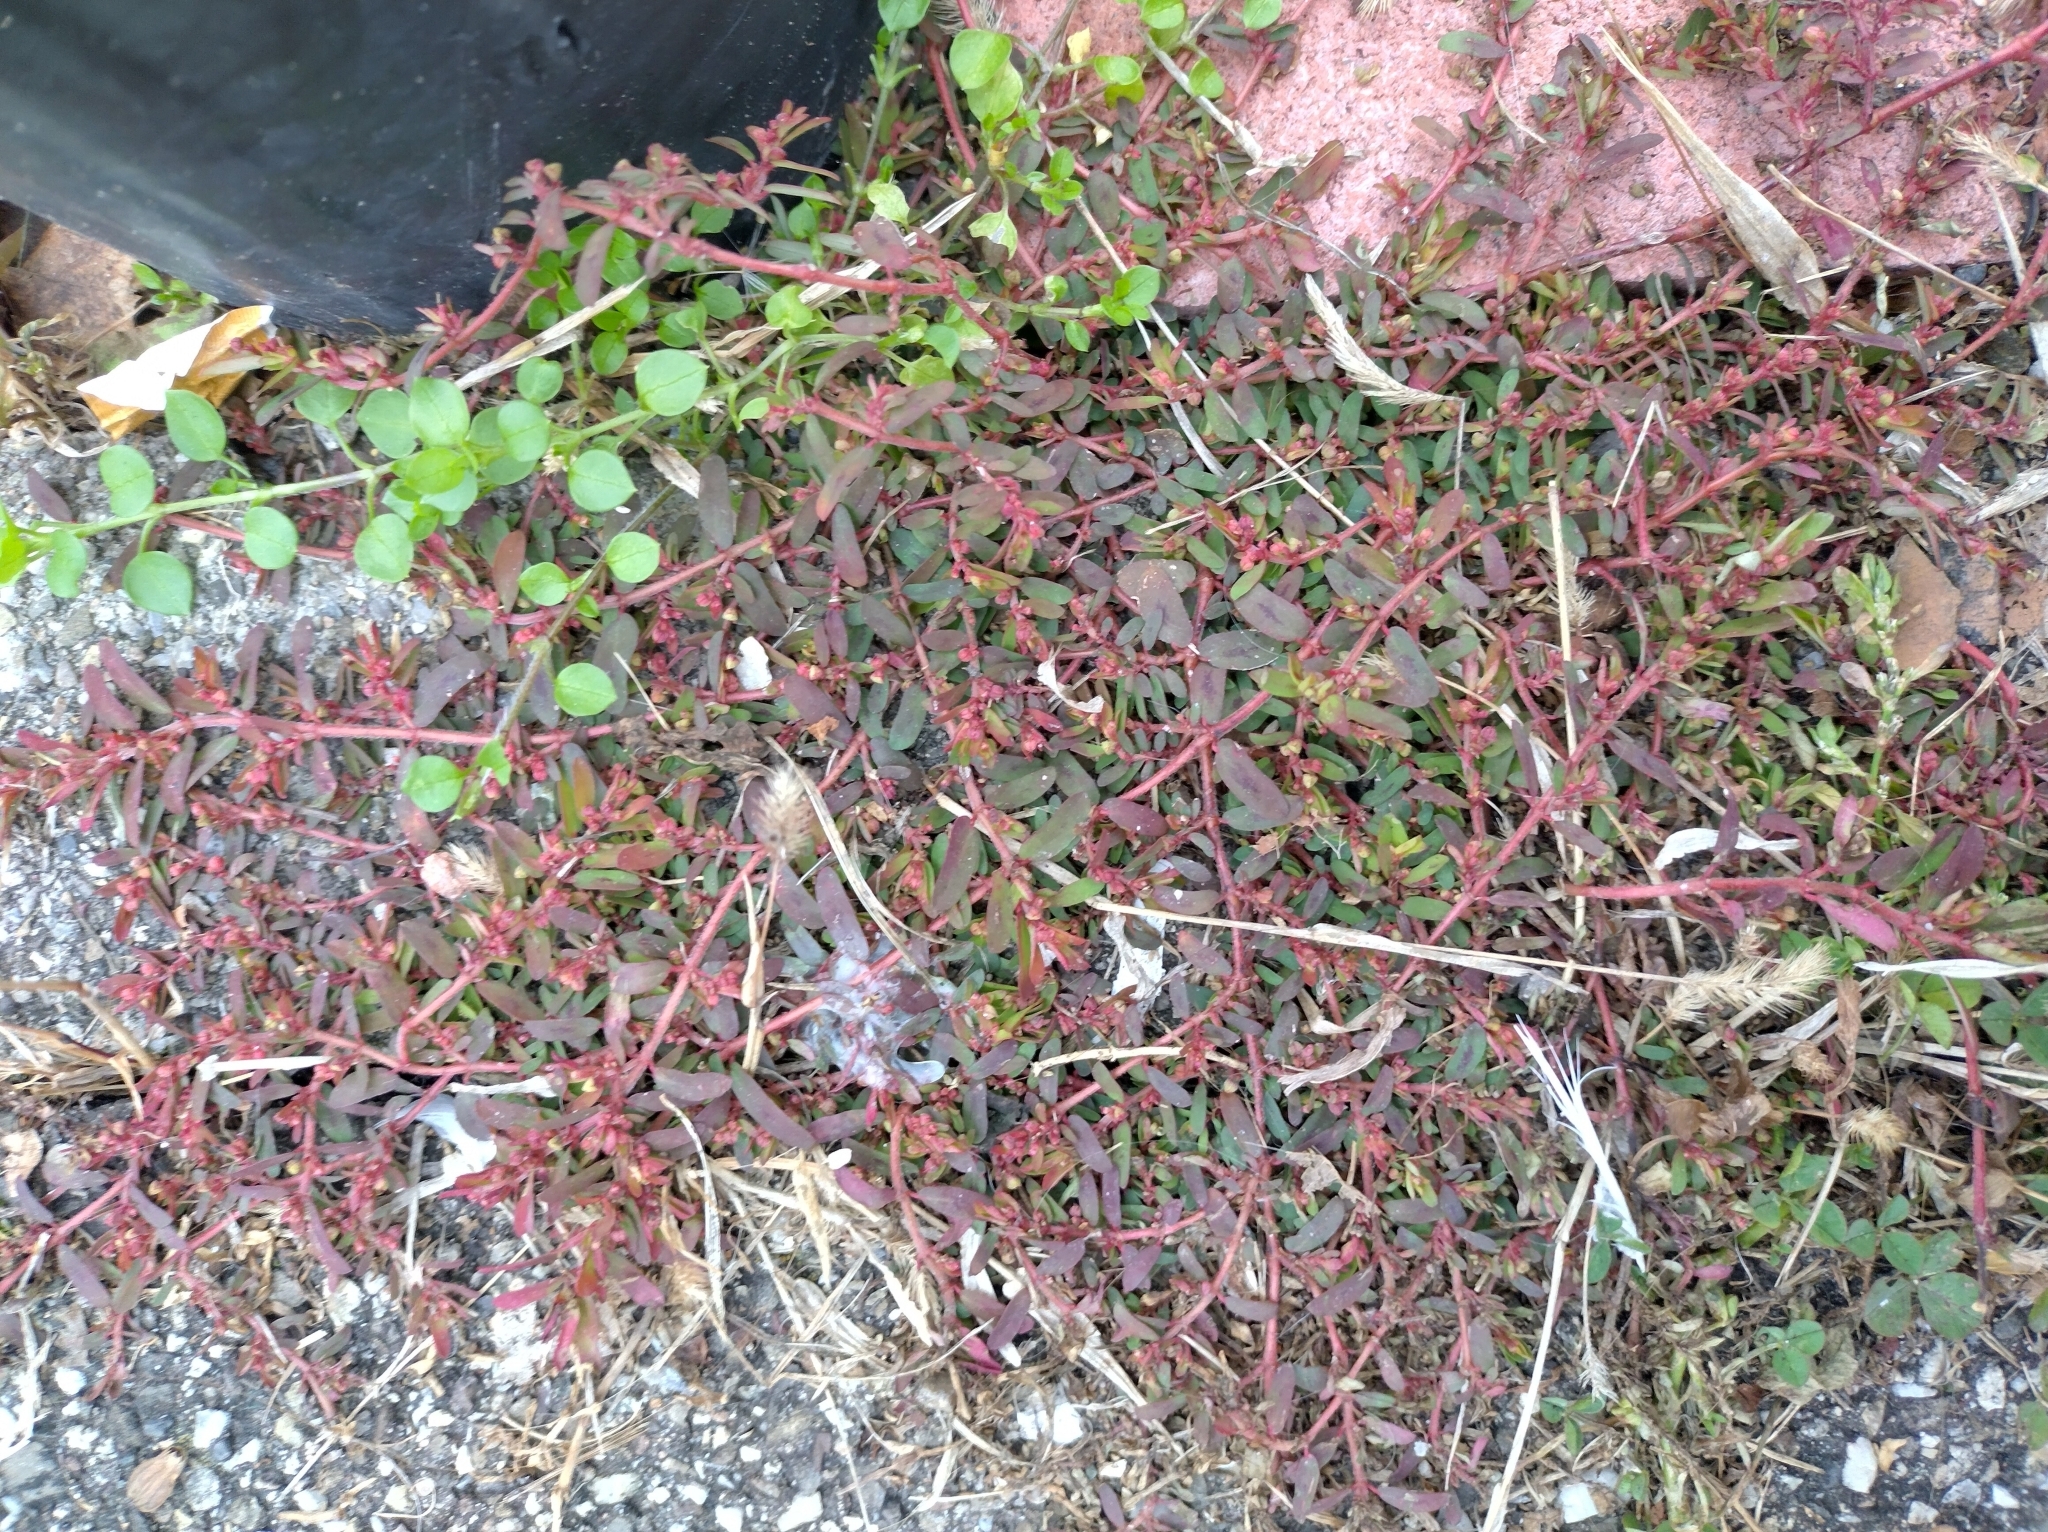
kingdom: Plantae
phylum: Tracheophyta
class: Magnoliopsida
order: Malpighiales
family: Euphorbiaceae
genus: Euphorbia
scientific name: Euphorbia maculata
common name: Spotted spurge
